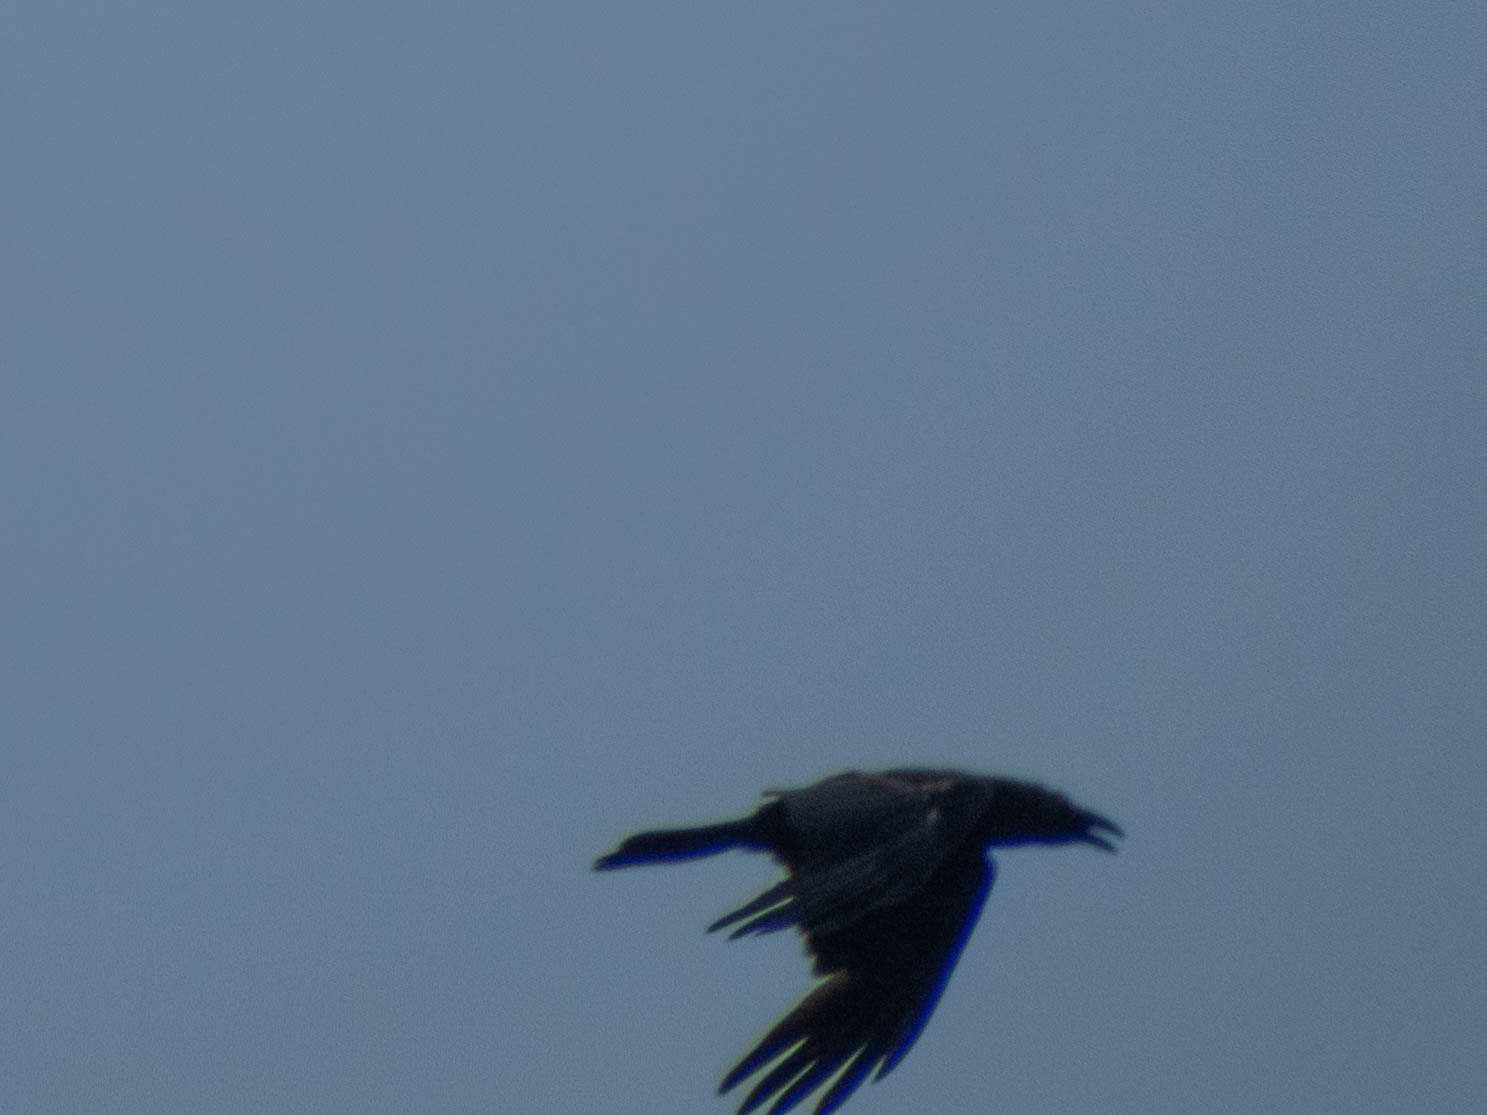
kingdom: Animalia
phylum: Chordata
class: Aves
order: Passeriformes
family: Corvidae
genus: Corvus
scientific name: Corvus corax
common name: Common raven
